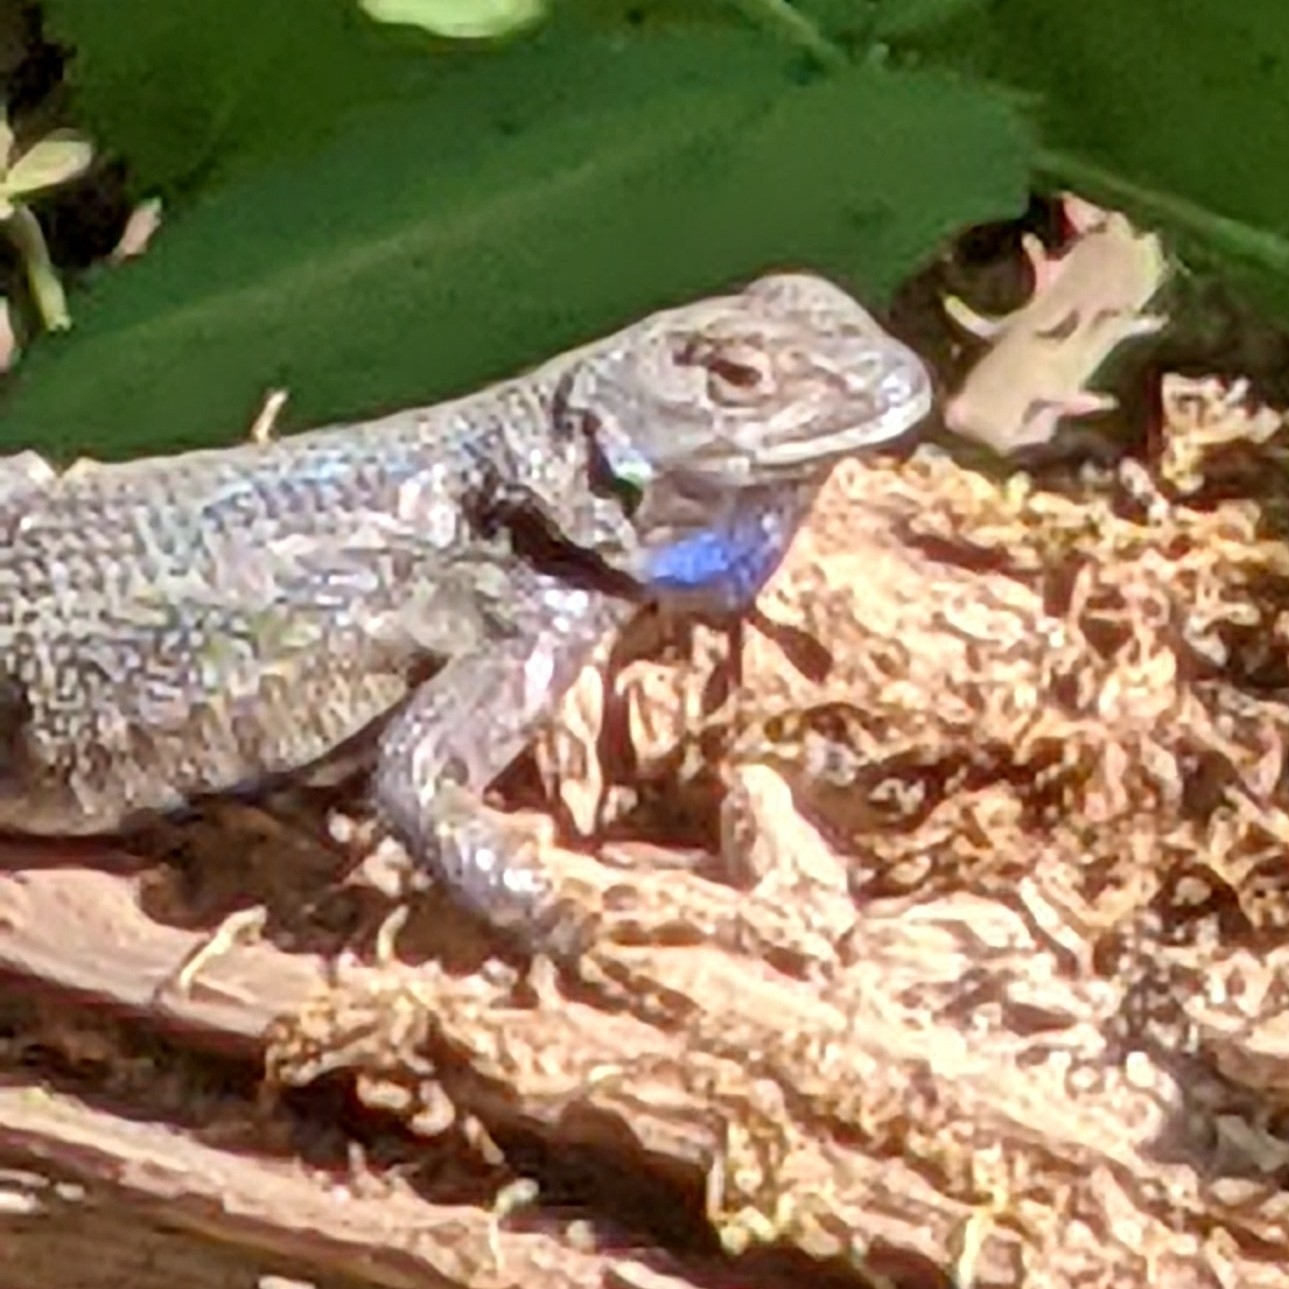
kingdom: Animalia
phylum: Chordata
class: Squamata
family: Phrynosomatidae
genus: Sceloporus
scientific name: Sceloporus occidentalis
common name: Western fence lizard
